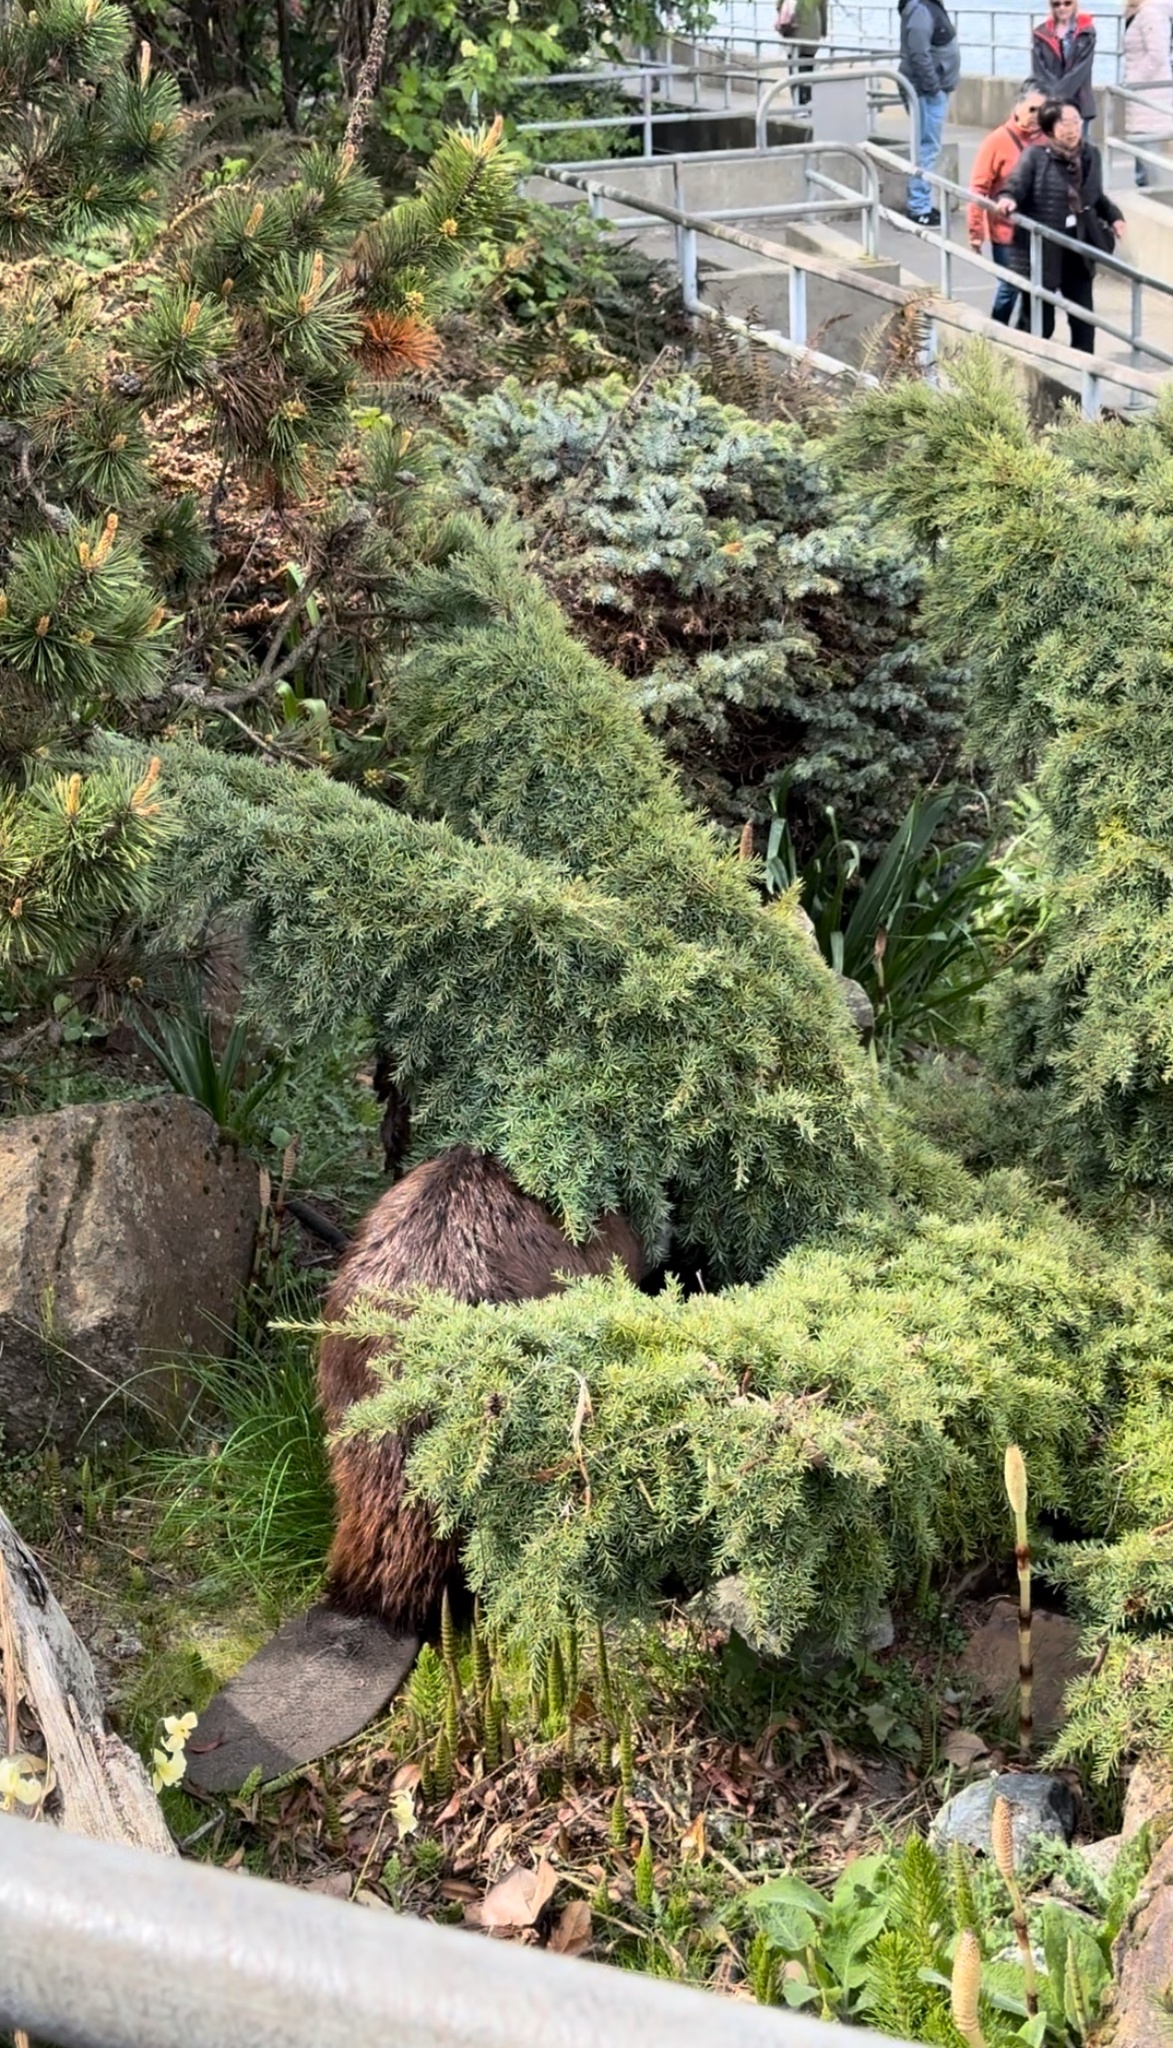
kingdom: Animalia
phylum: Chordata
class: Mammalia
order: Rodentia
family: Castoridae
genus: Castor
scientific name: Castor canadensis
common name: American beaver
